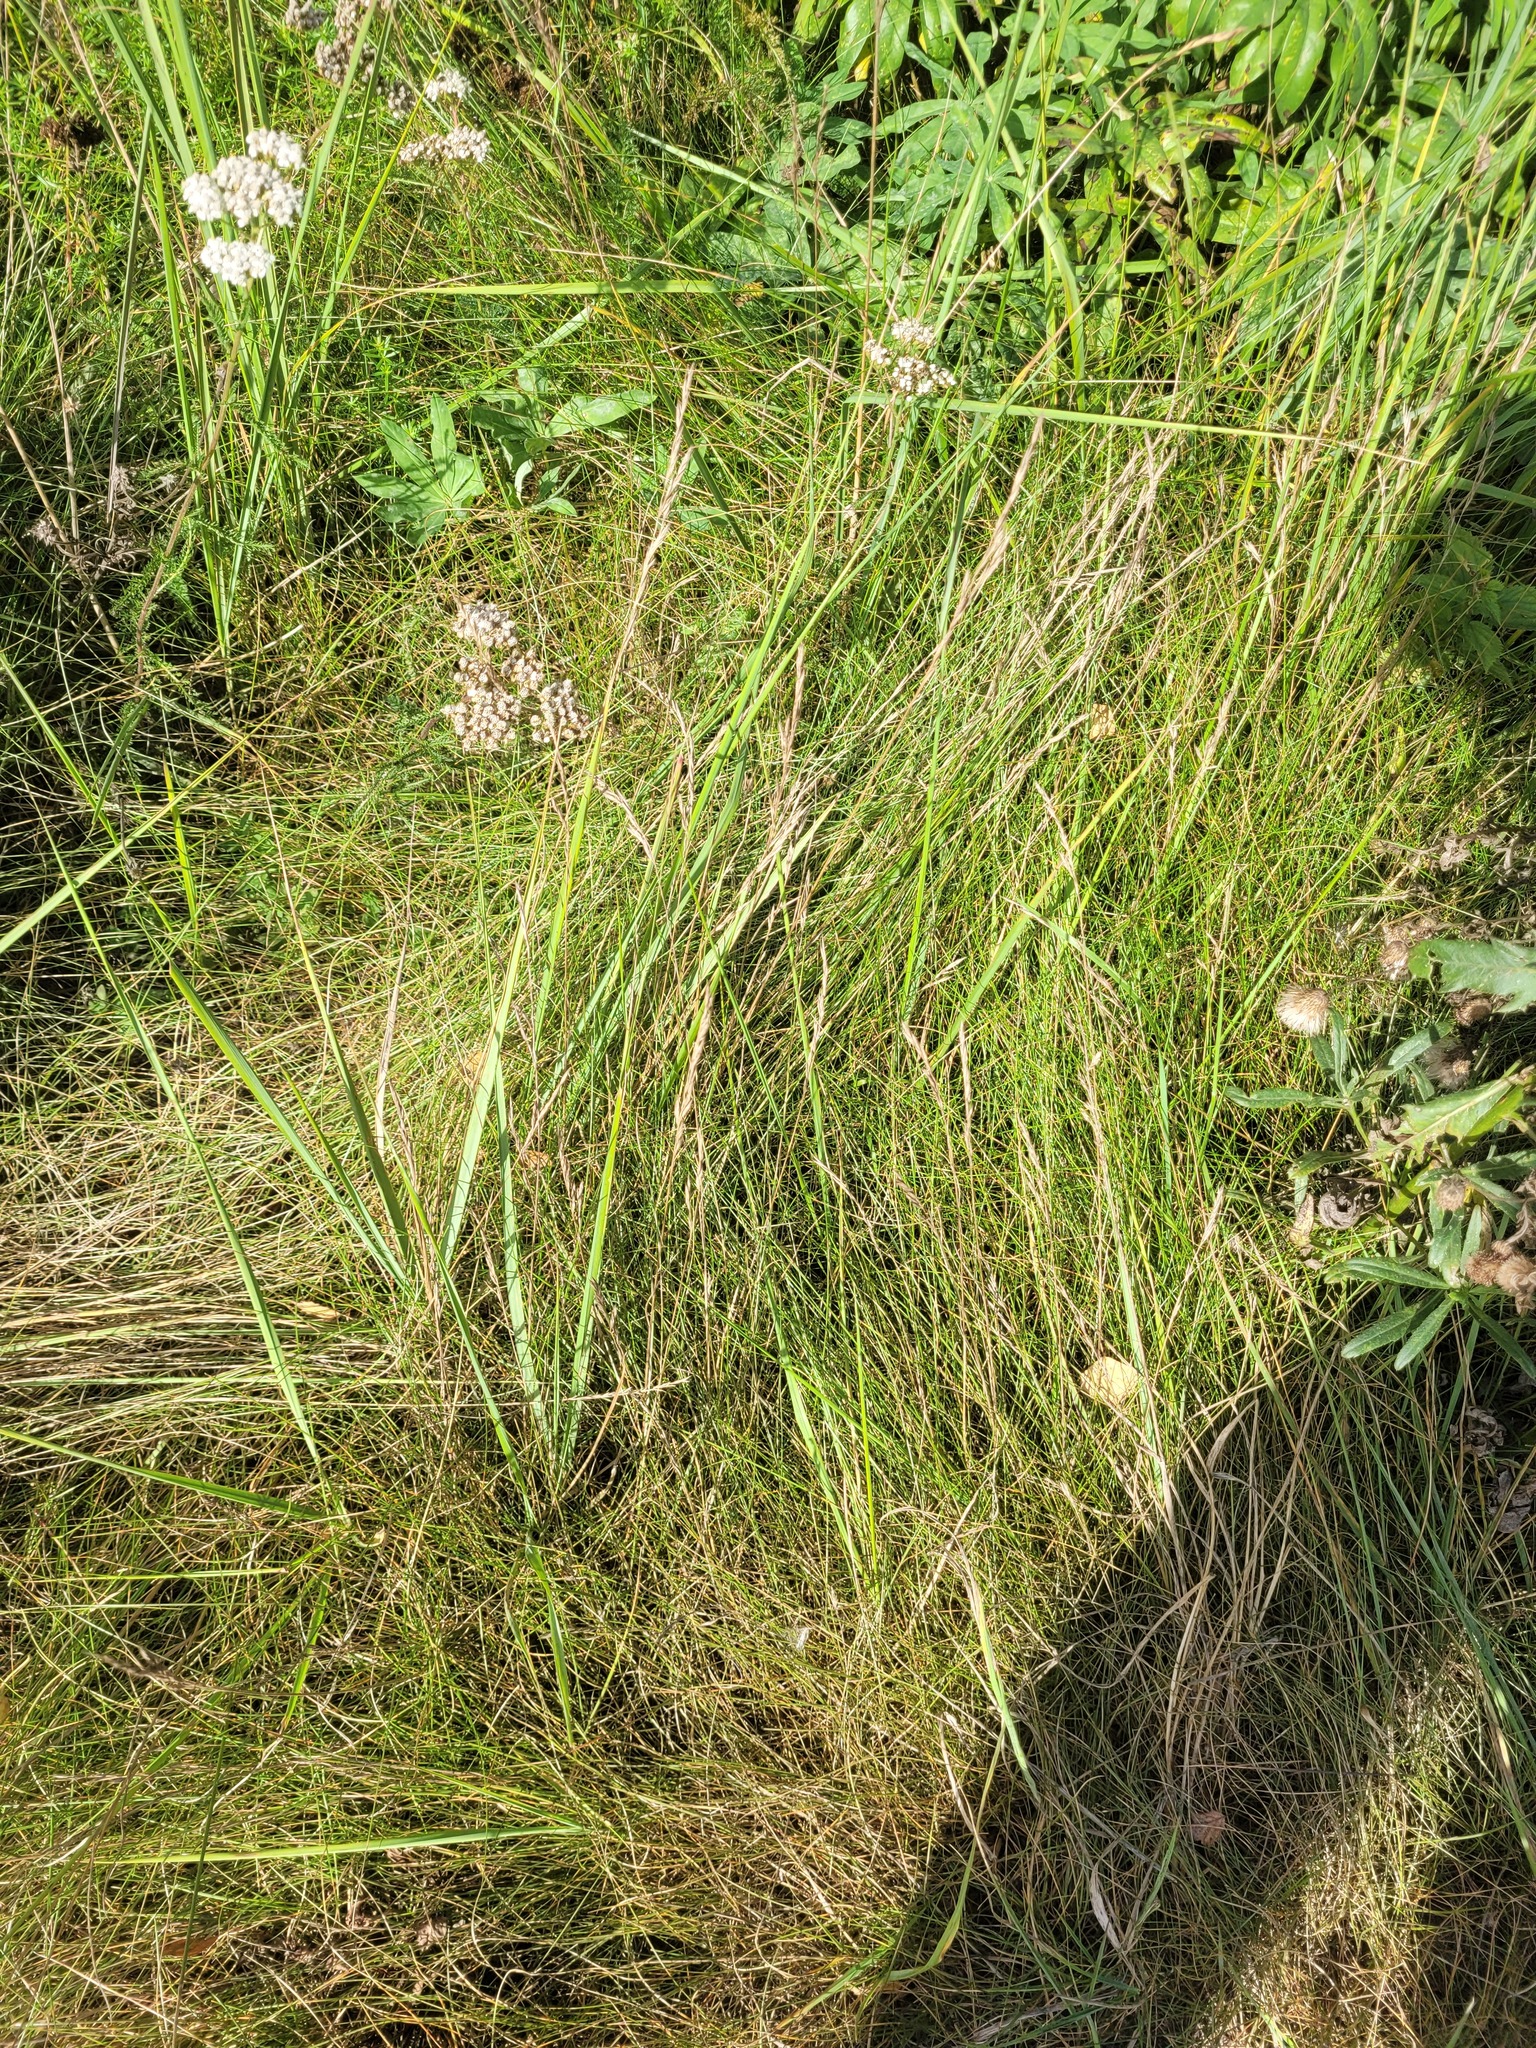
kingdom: Plantae
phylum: Tracheophyta
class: Liliopsida
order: Poales
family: Poaceae
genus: Festuca
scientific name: Festuca rubra
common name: Red fescue
